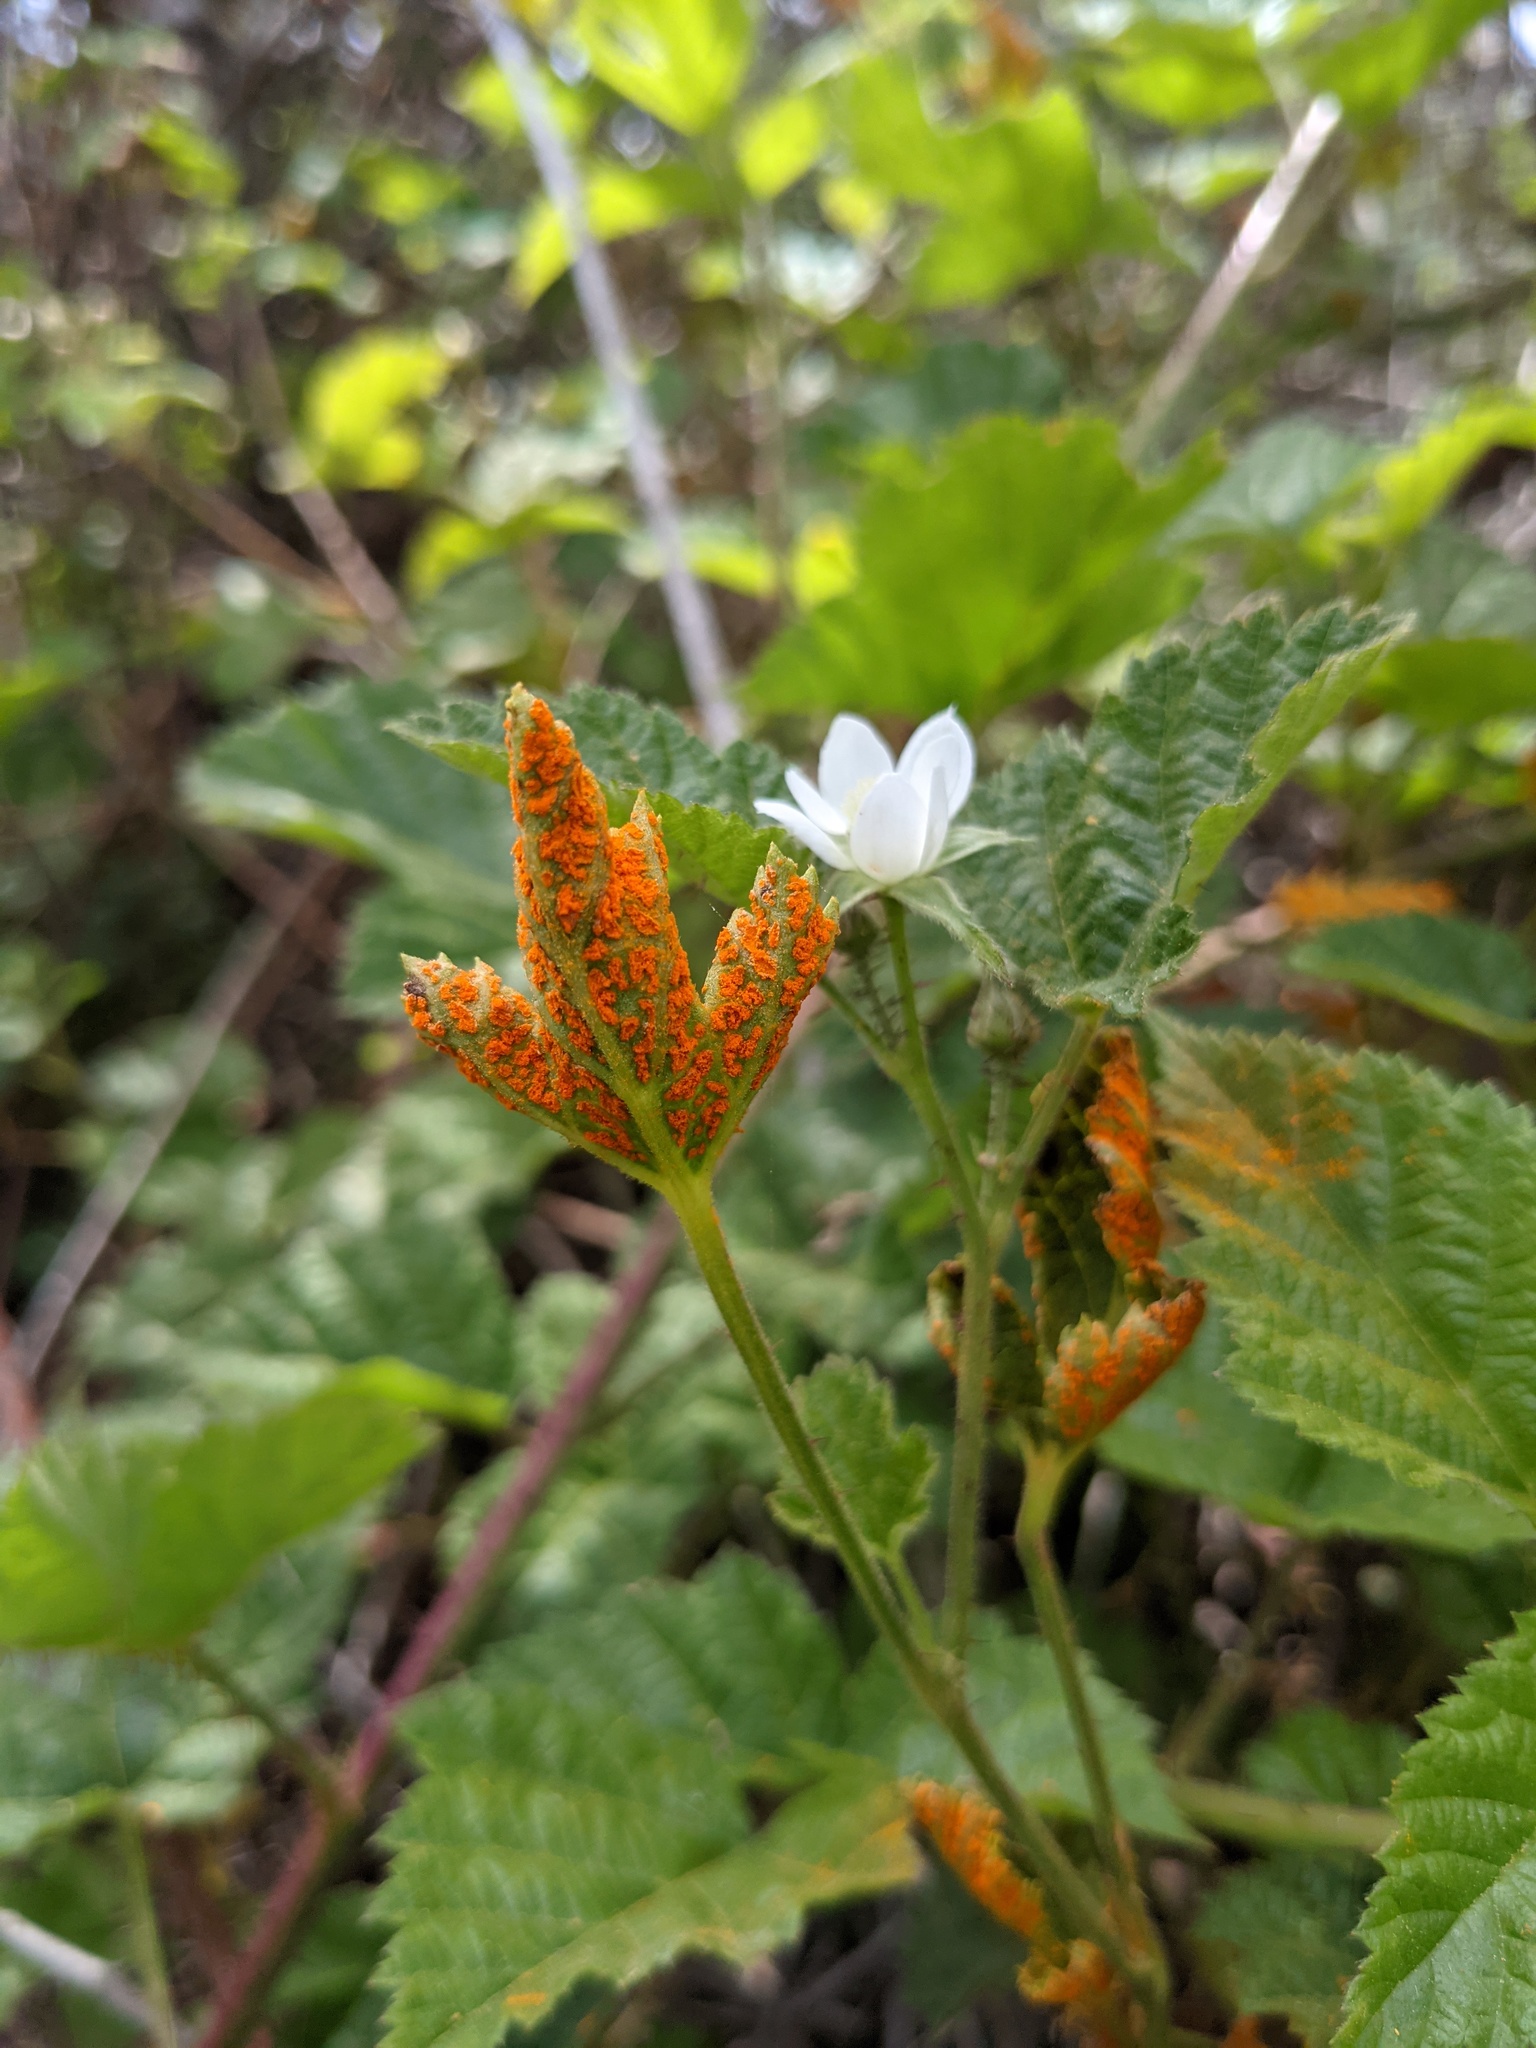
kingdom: Fungi
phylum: Basidiomycota
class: Pucciniomycetes
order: Pucciniales
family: Phragmidiaceae
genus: Arthuriomyces
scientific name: Arthuriomyces peckianus
